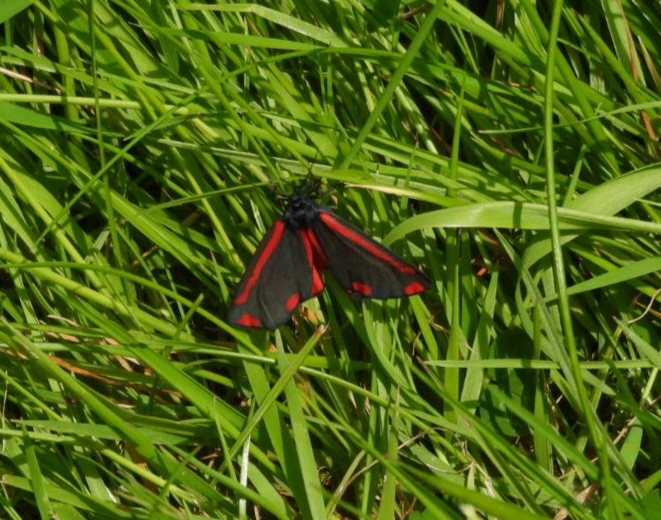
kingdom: Animalia
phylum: Arthropoda
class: Insecta
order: Lepidoptera
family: Erebidae
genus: Tyria
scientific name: Tyria jacobaeae
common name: Cinnabar
